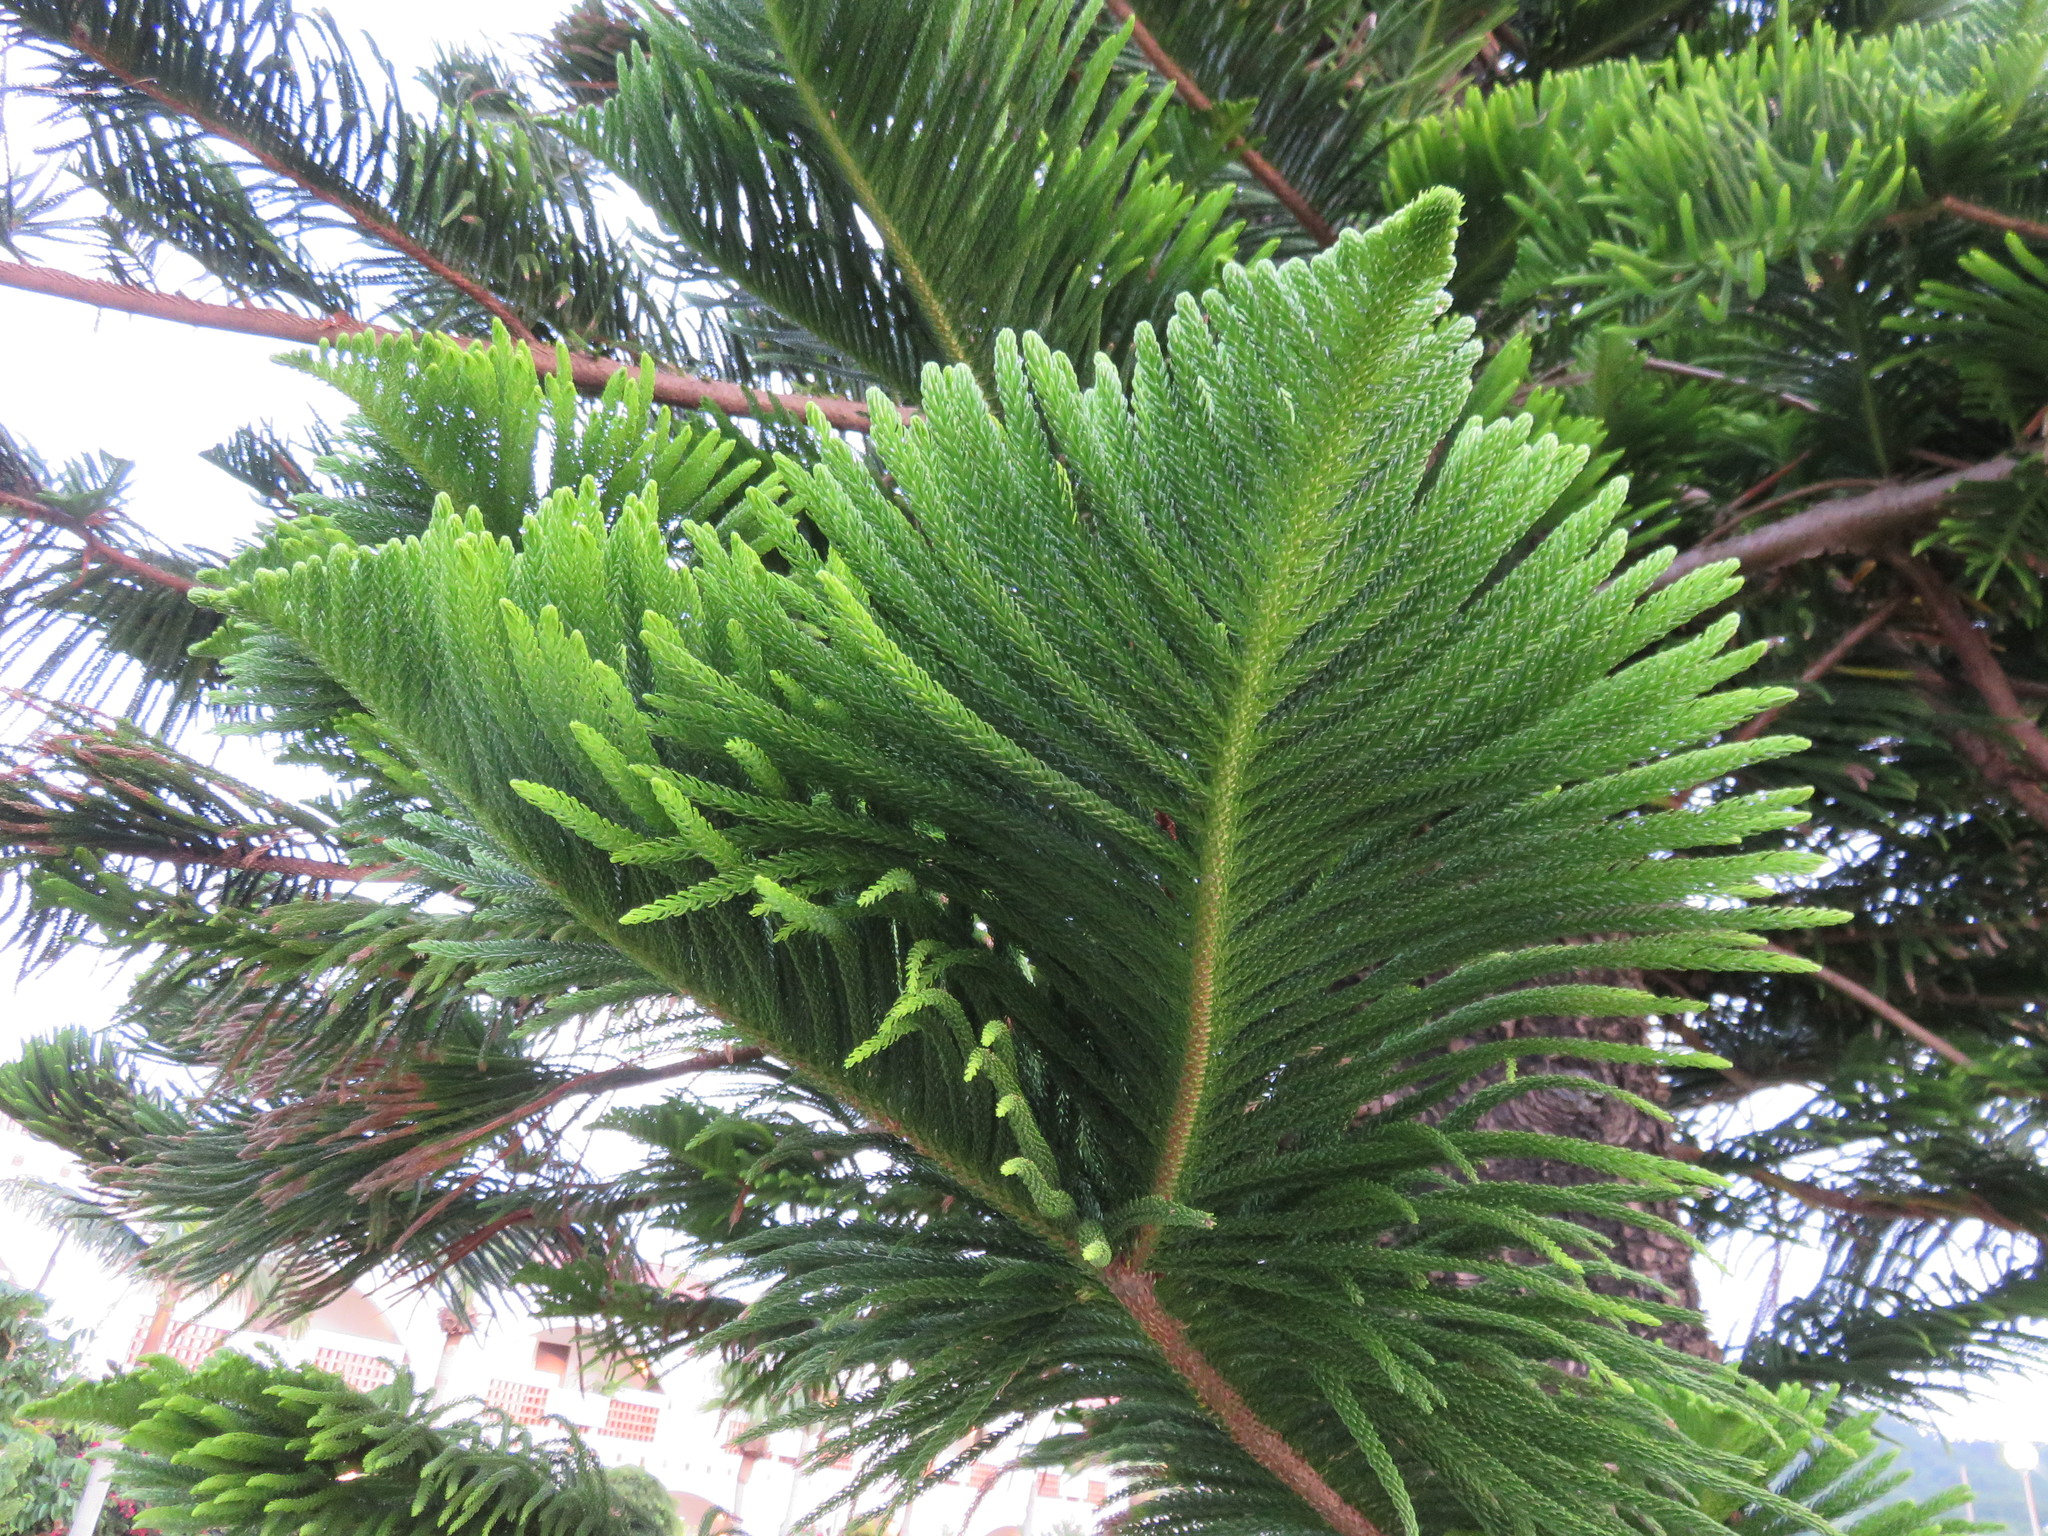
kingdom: Plantae
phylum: Tracheophyta
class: Pinopsida
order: Pinales
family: Araucariaceae
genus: Araucaria
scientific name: Araucaria heterophylla
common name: Norfolk island pine
